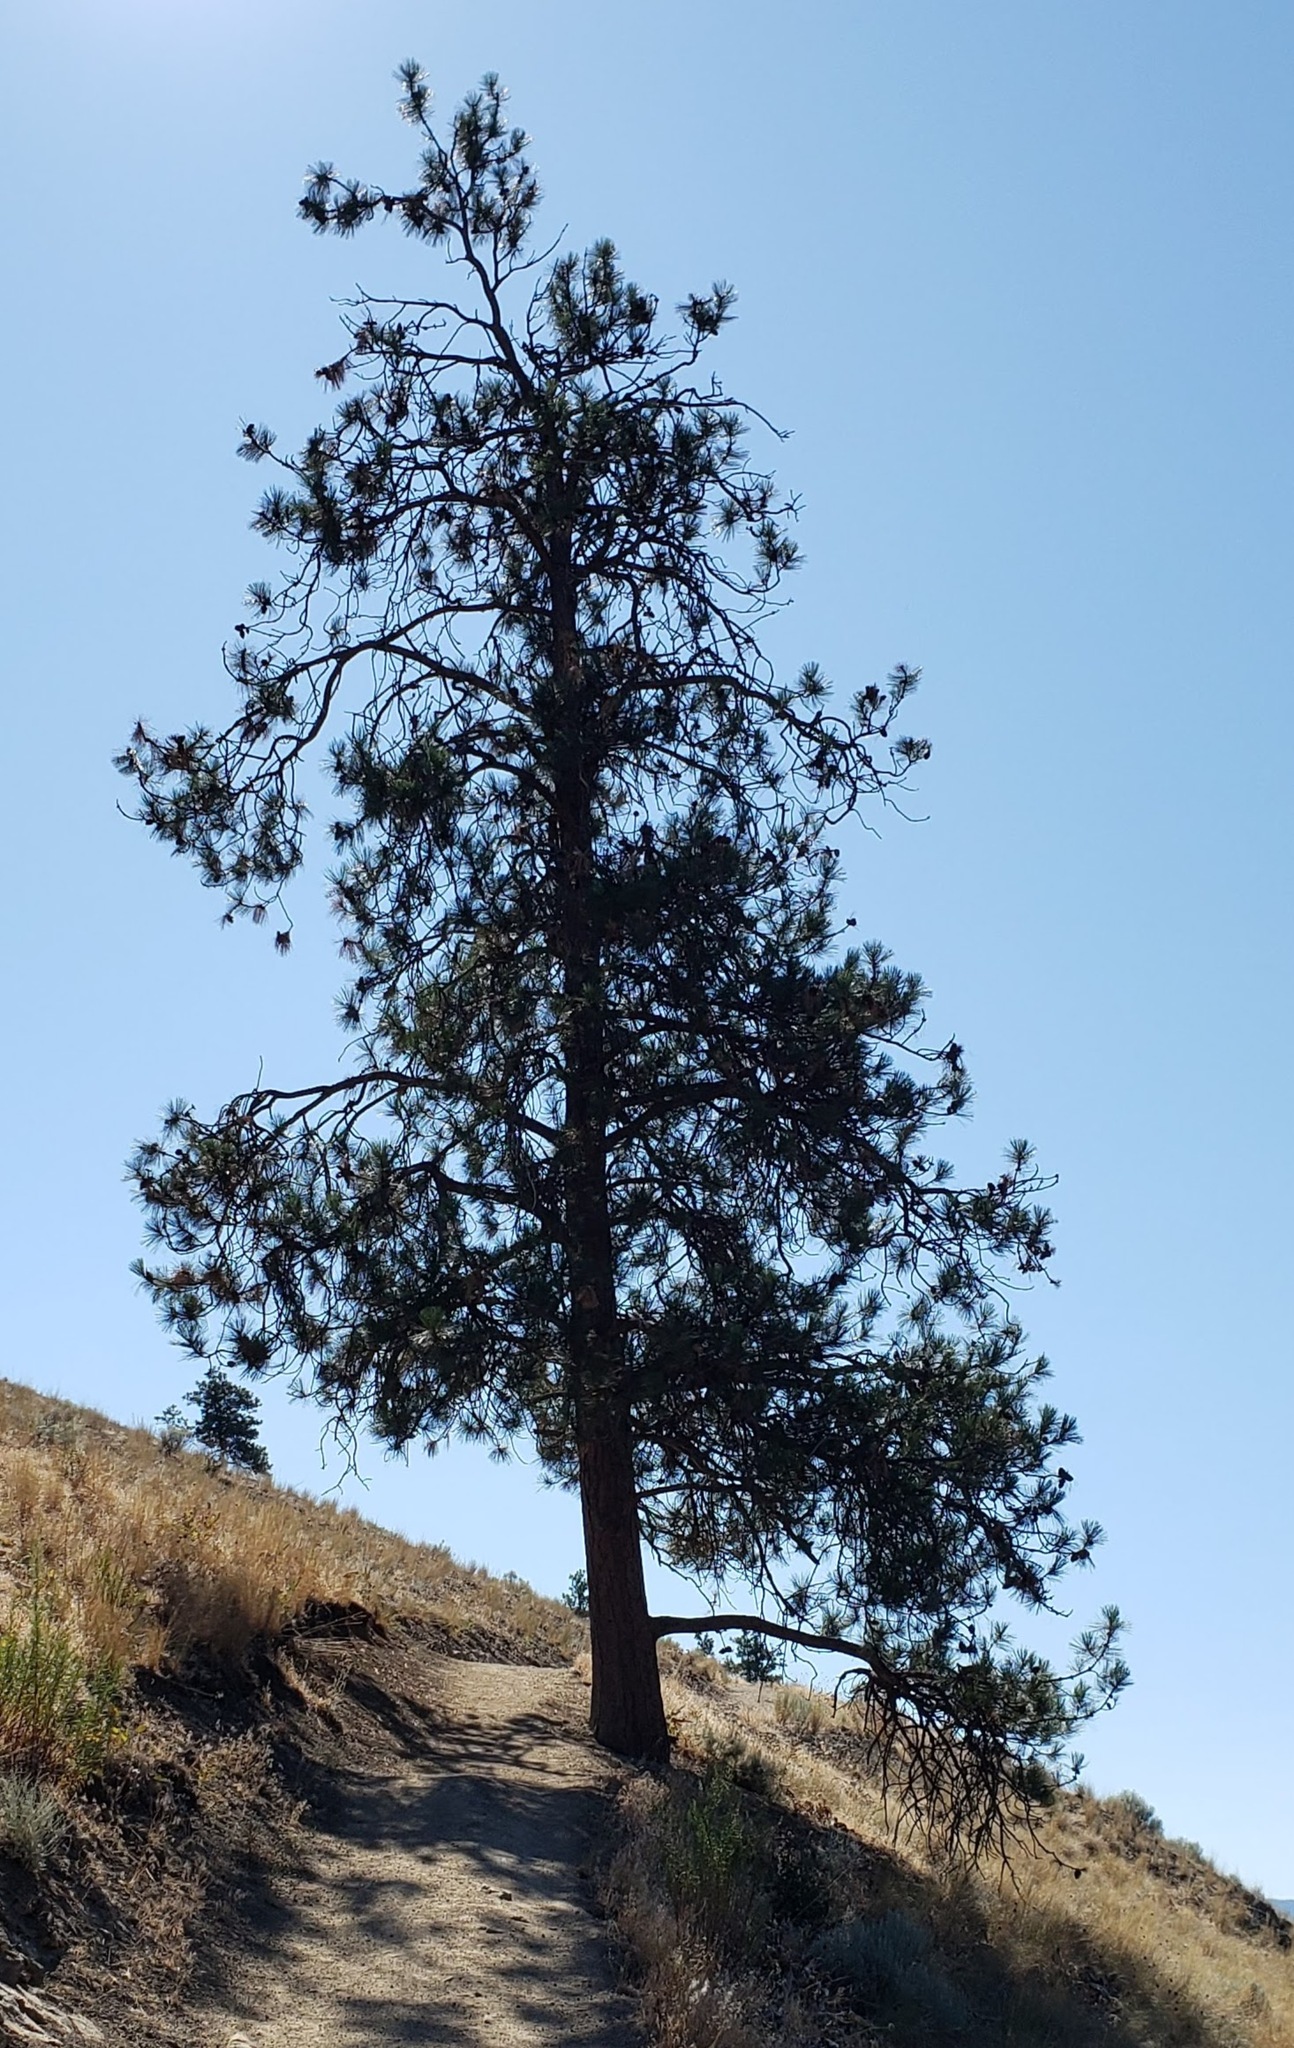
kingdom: Plantae
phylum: Tracheophyta
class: Pinopsida
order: Pinales
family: Pinaceae
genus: Pinus
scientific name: Pinus ponderosa
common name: Western yellow-pine
